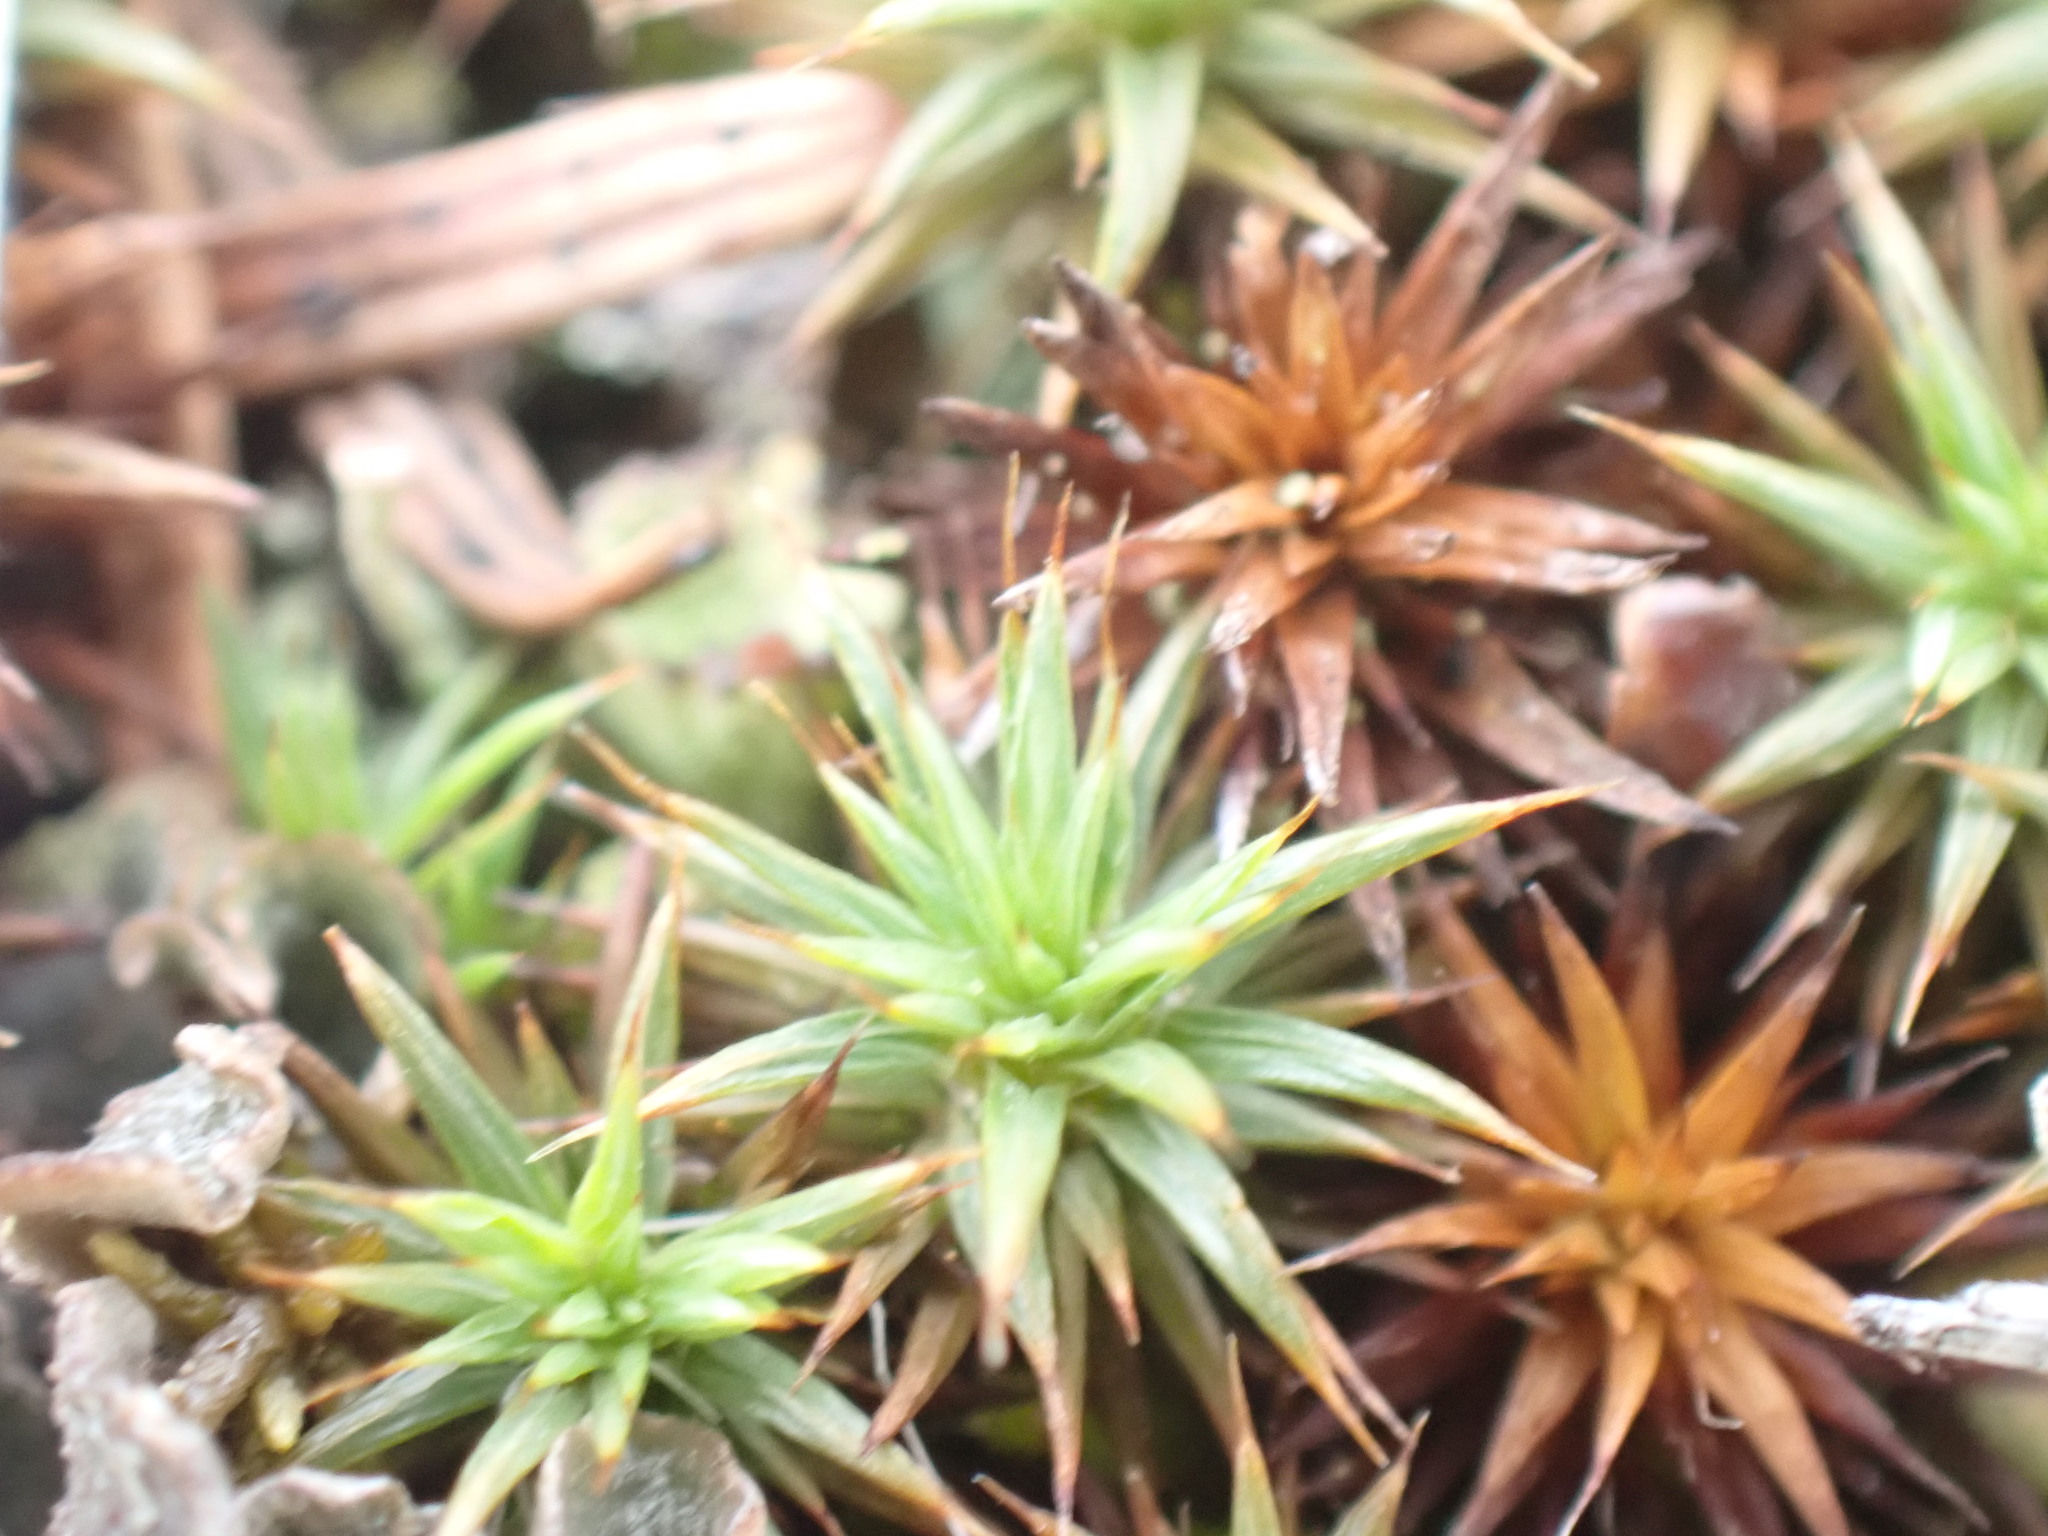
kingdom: Plantae
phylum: Bryophyta
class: Polytrichopsida
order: Polytrichales
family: Polytrichaceae
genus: Polytrichum
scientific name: Polytrichum juniperinum
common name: Juniper haircap moss
